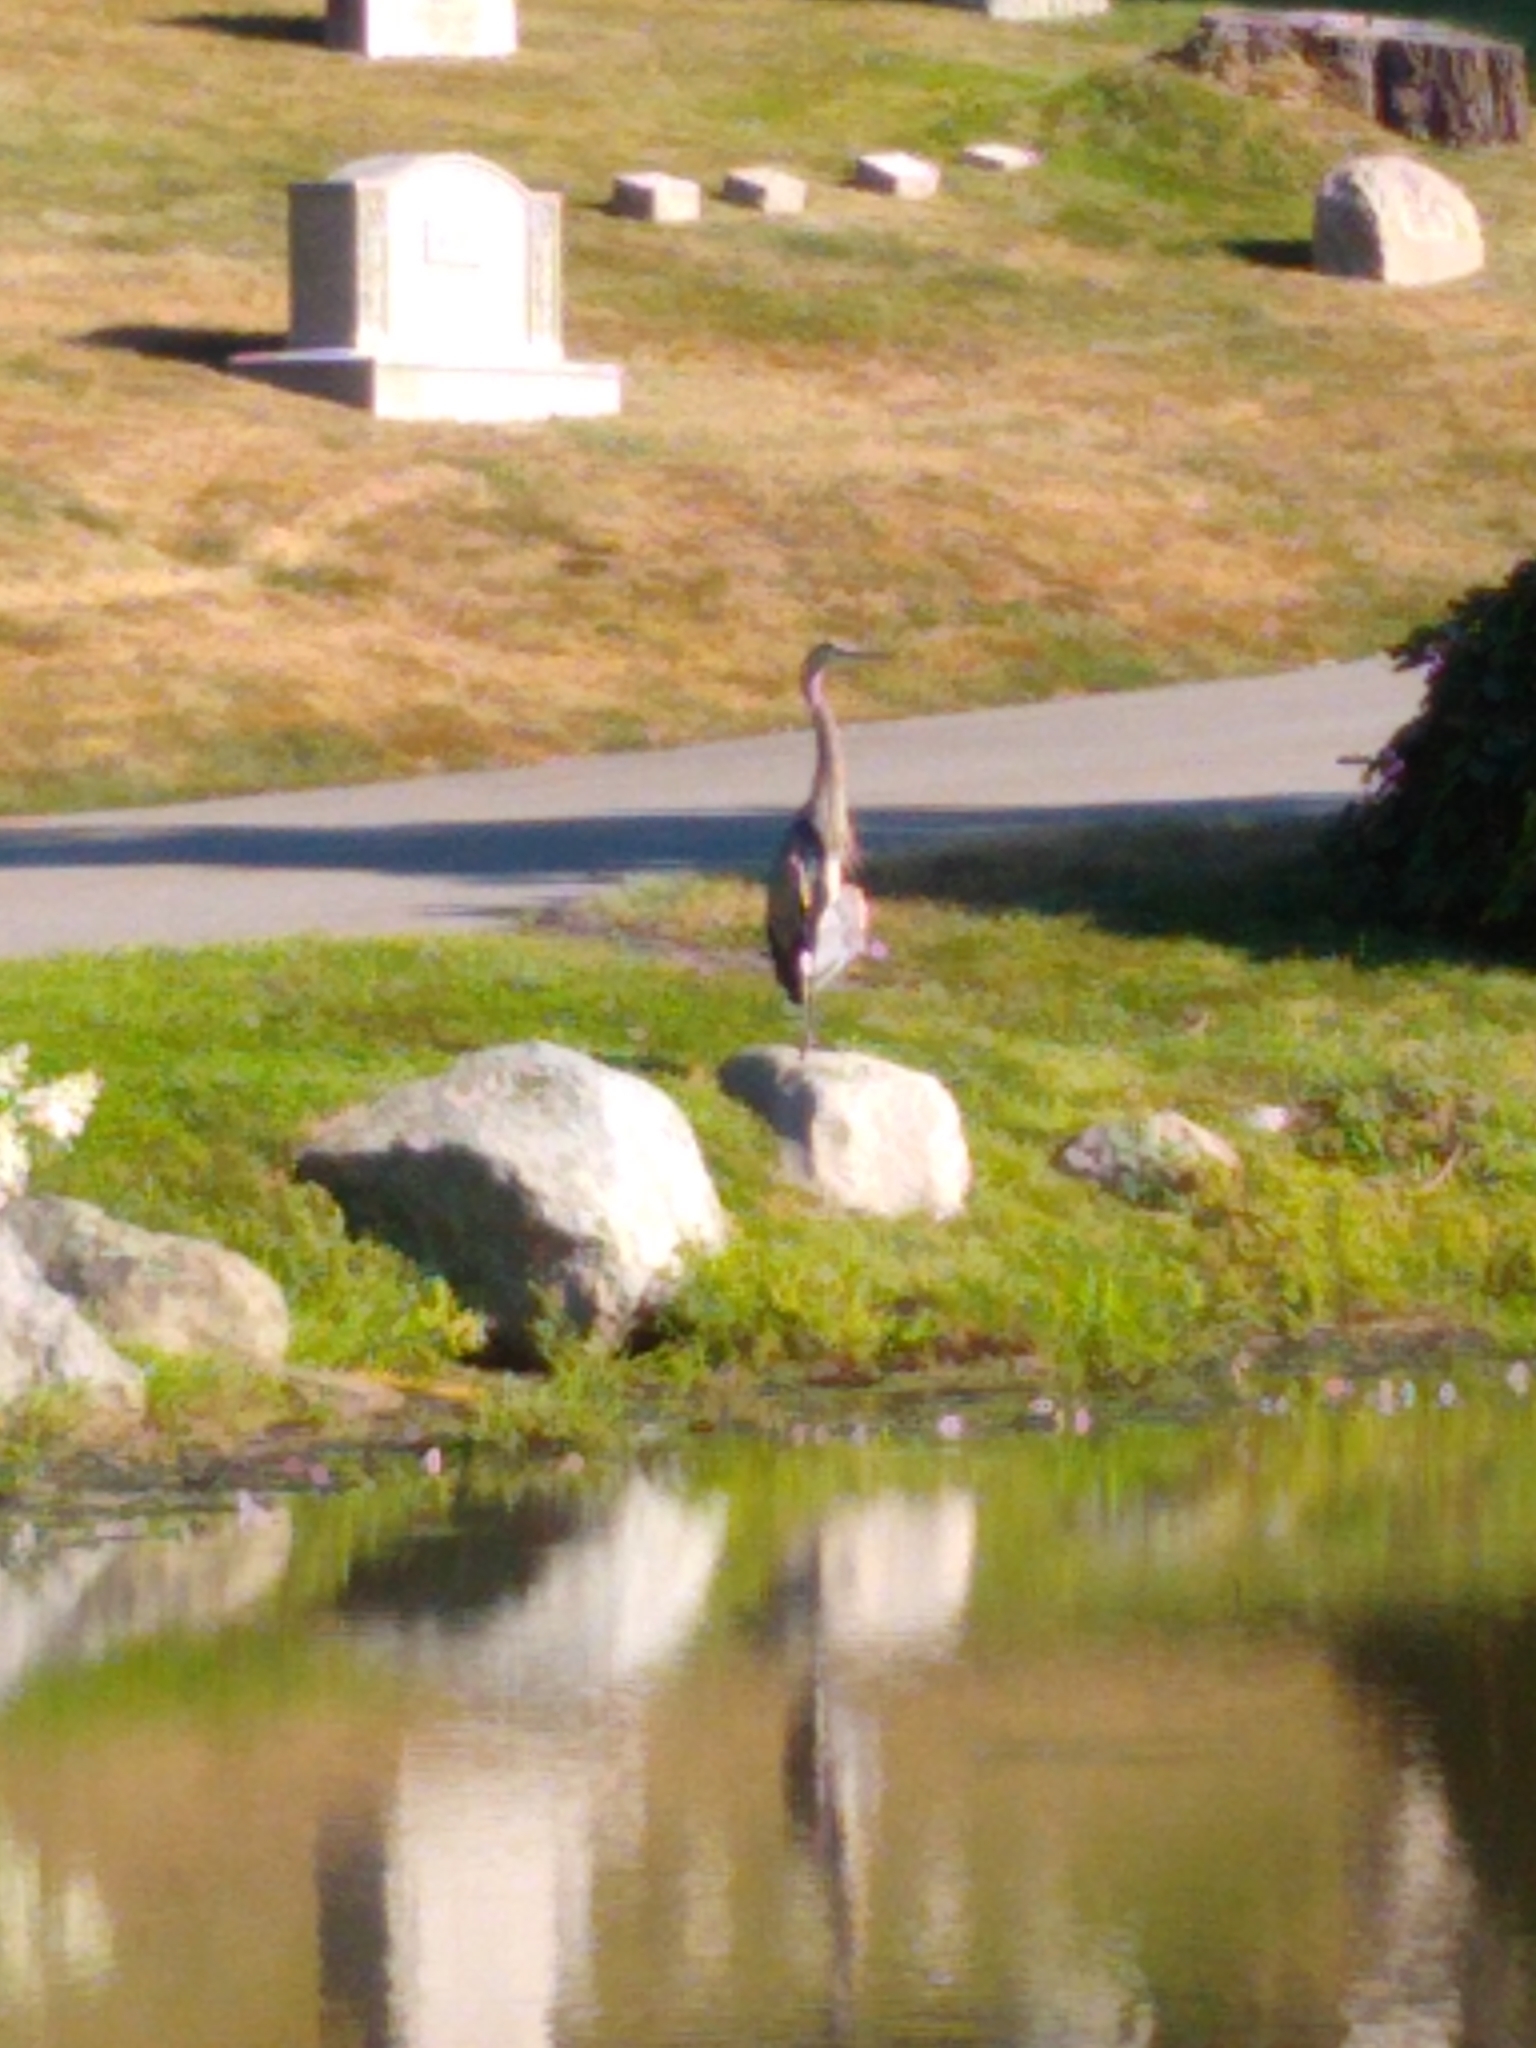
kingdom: Animalia
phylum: Chordata
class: Aves
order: Pelecaniformes
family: Ardeidae
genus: Ardea
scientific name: Ardea herodias
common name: Great blue heron
